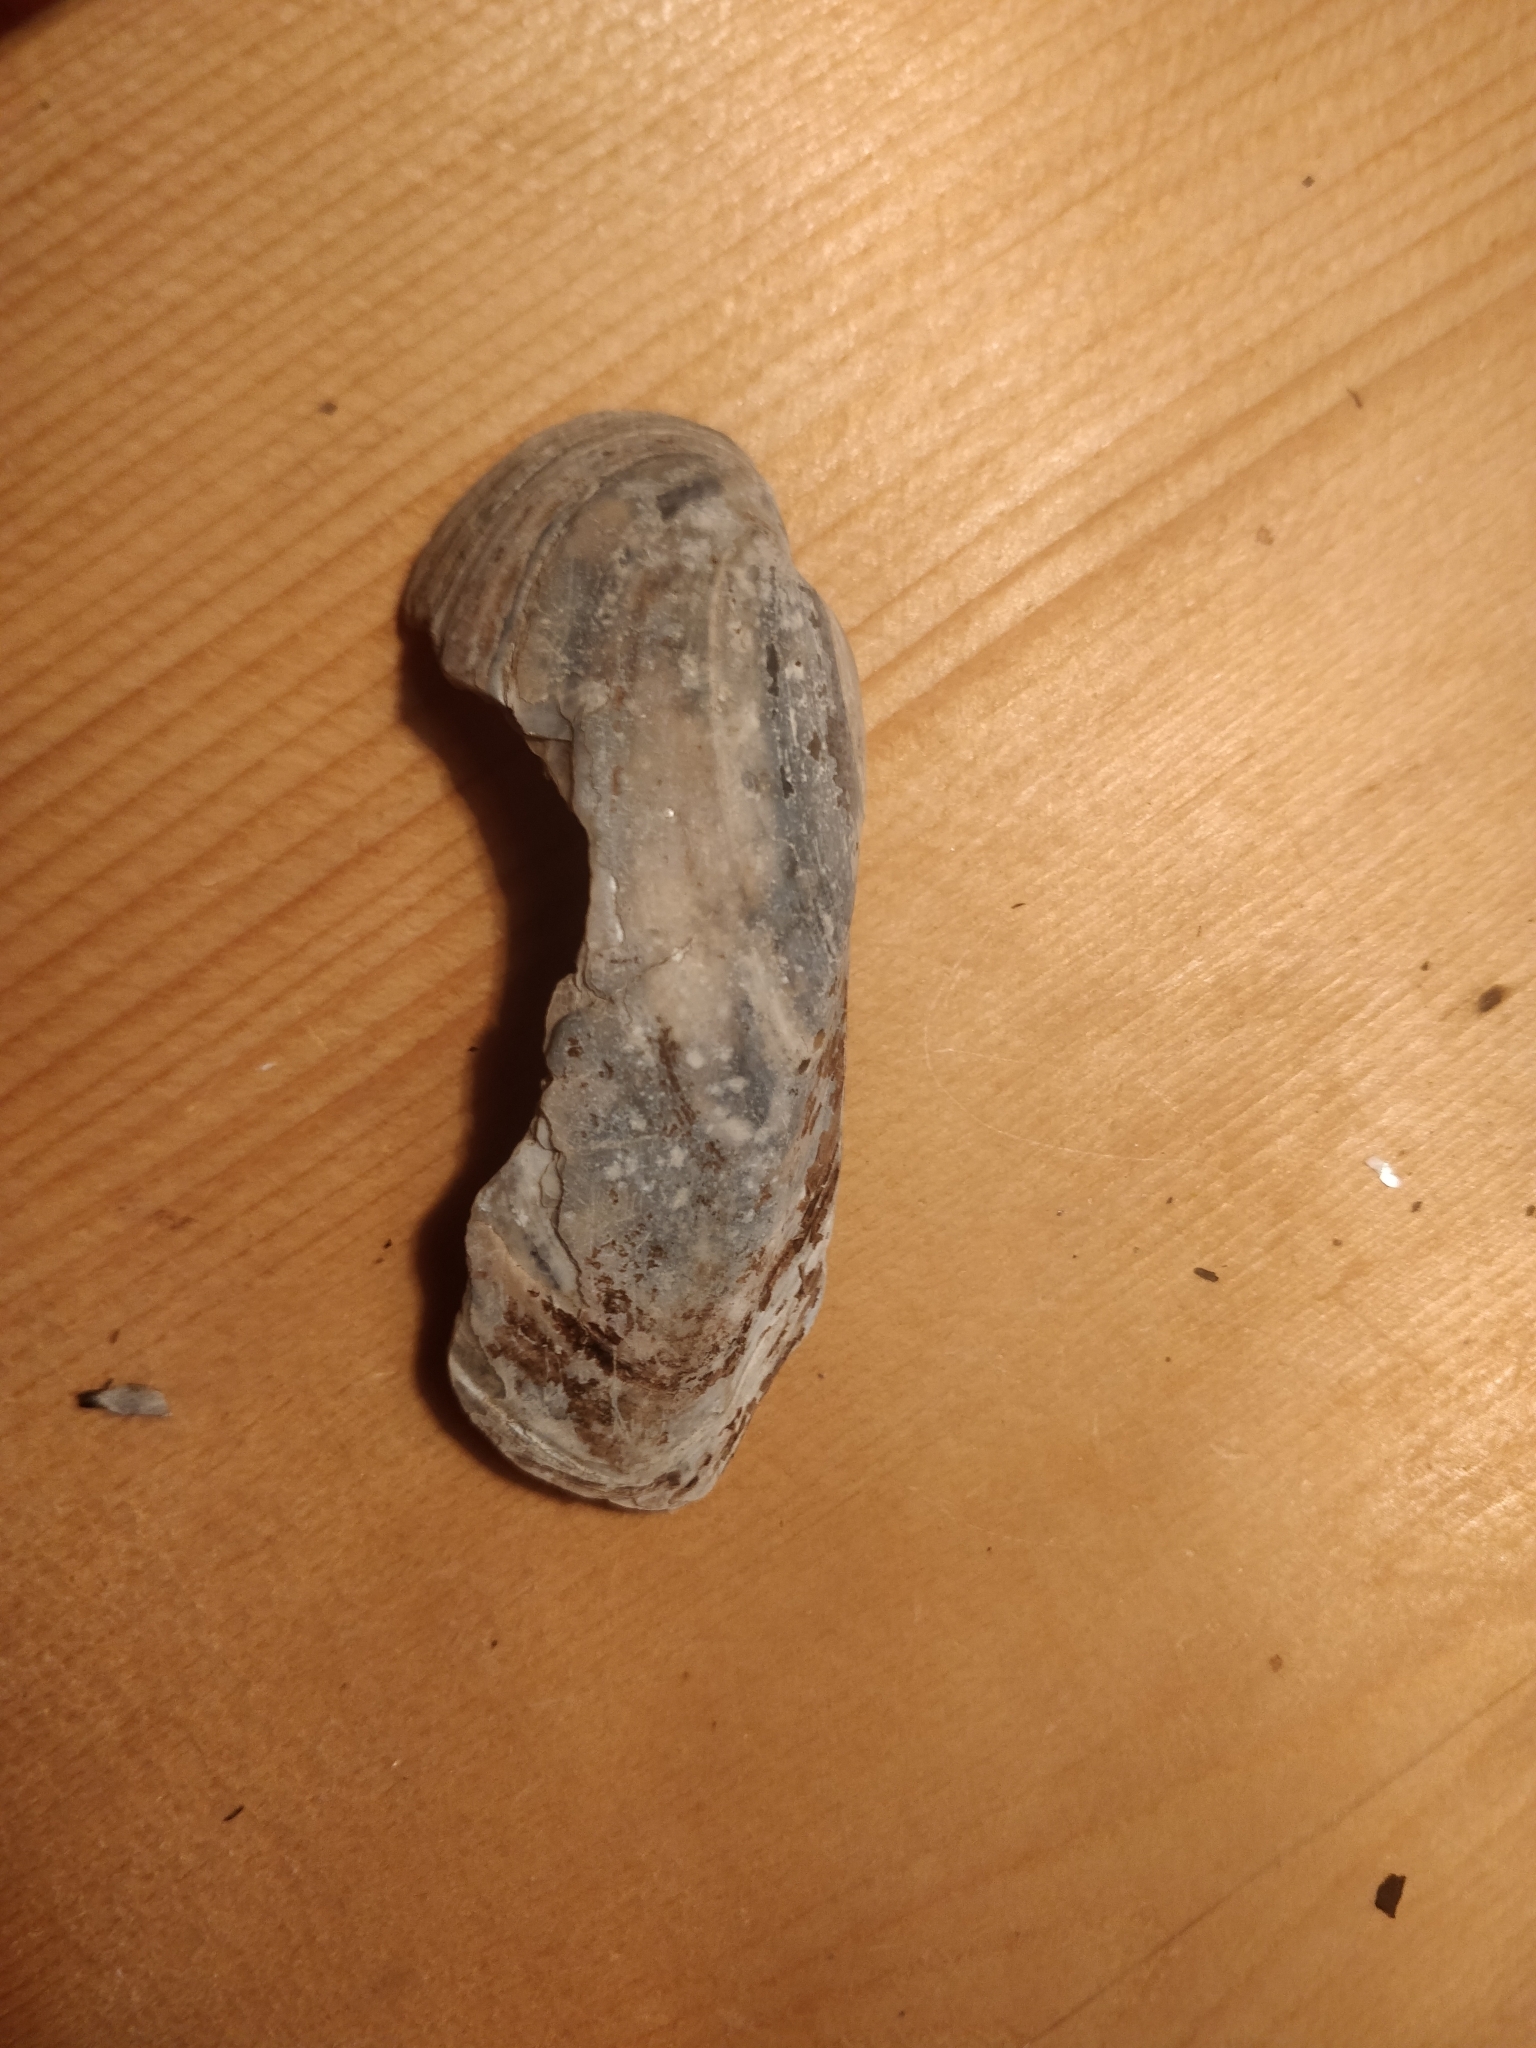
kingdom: Animalia
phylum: Mollusca
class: Bivalvia
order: Unionida
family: Unionidae
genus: Lampsilis
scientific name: Lampsilis teres
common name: Yellow sandshell
